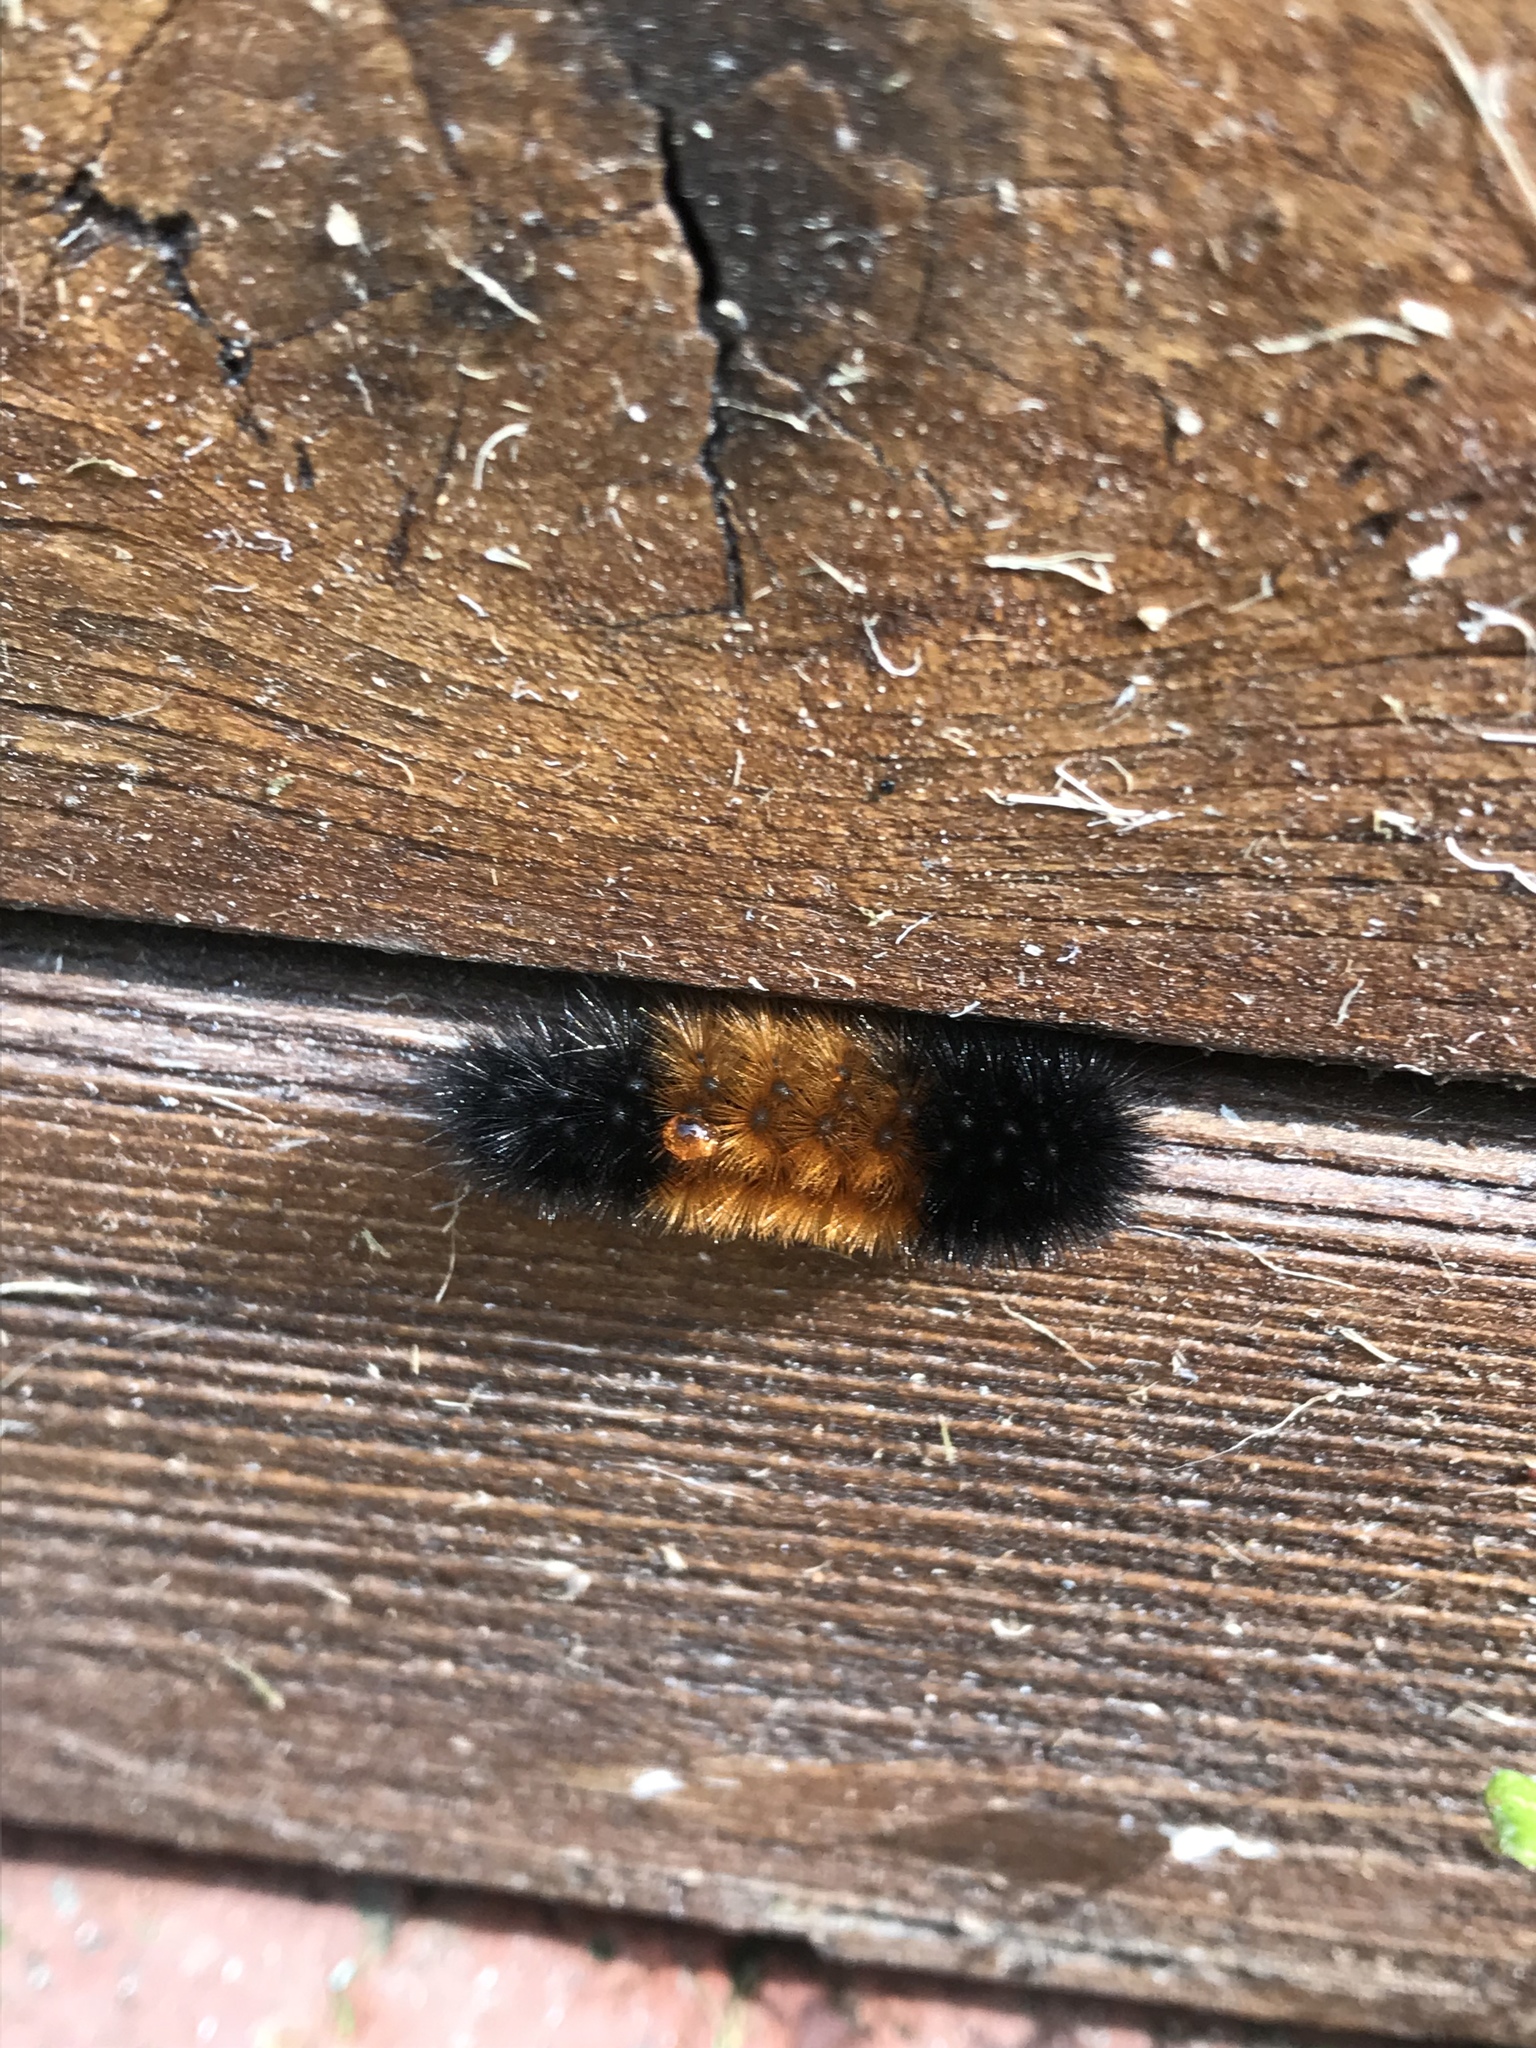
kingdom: Animalia
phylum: Arthropoda
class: Insecta
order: Lepidoptera
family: Erebidae
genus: Pyrrharctia
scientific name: Pyrrharctia isabella
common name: Isabella tiger moth
